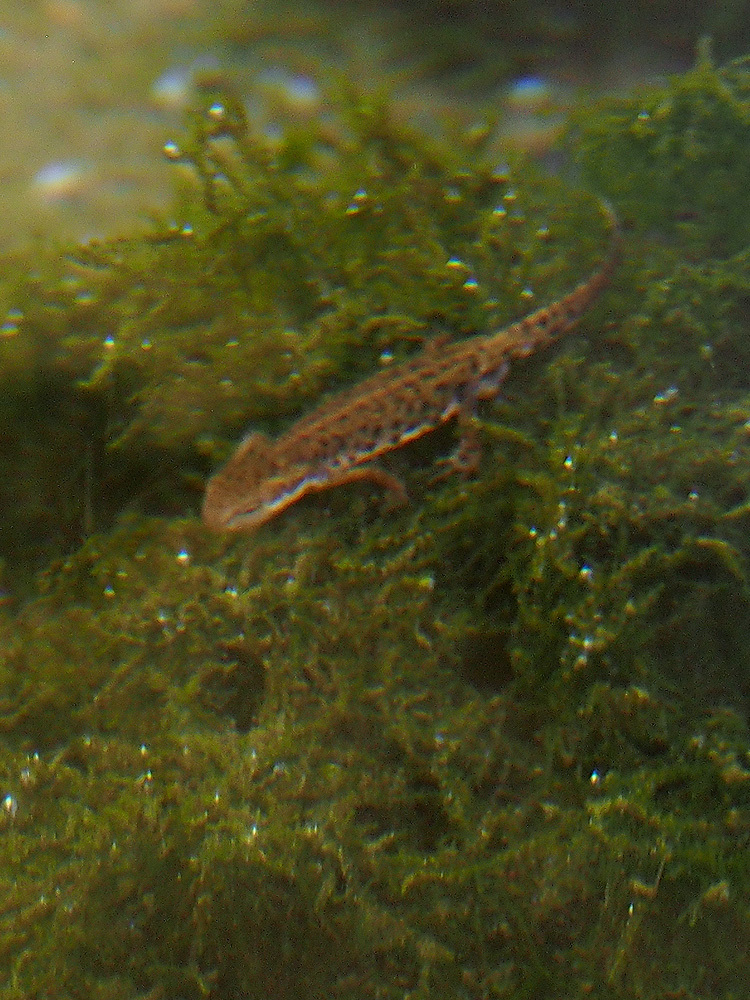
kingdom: Animalia
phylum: Chordata
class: Amphibia
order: Caudata
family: Salamandridae
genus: Lissotriton
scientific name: Lissotriton boscai
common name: Bosca's newt
